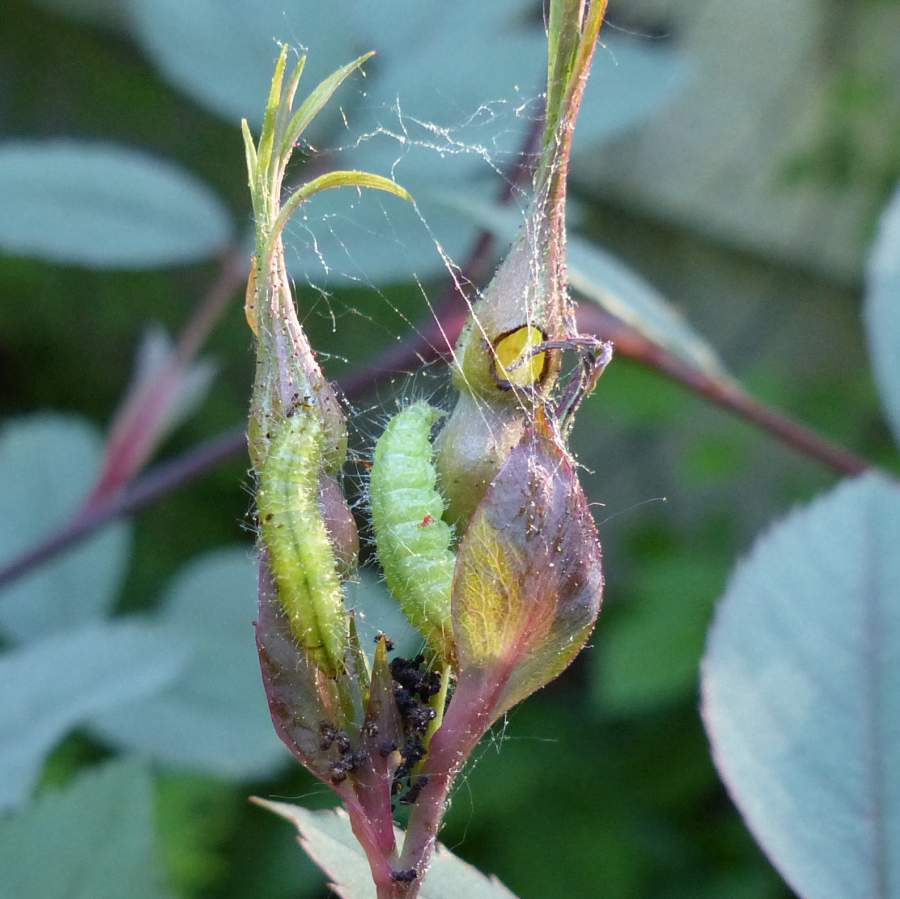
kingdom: Animalia
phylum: Arthropoda
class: Insecta
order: Lepidoptera
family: Pterophoridae
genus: Cnaemidophorus
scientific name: Cnaemidophorus rhododactyla
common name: Rose plume
